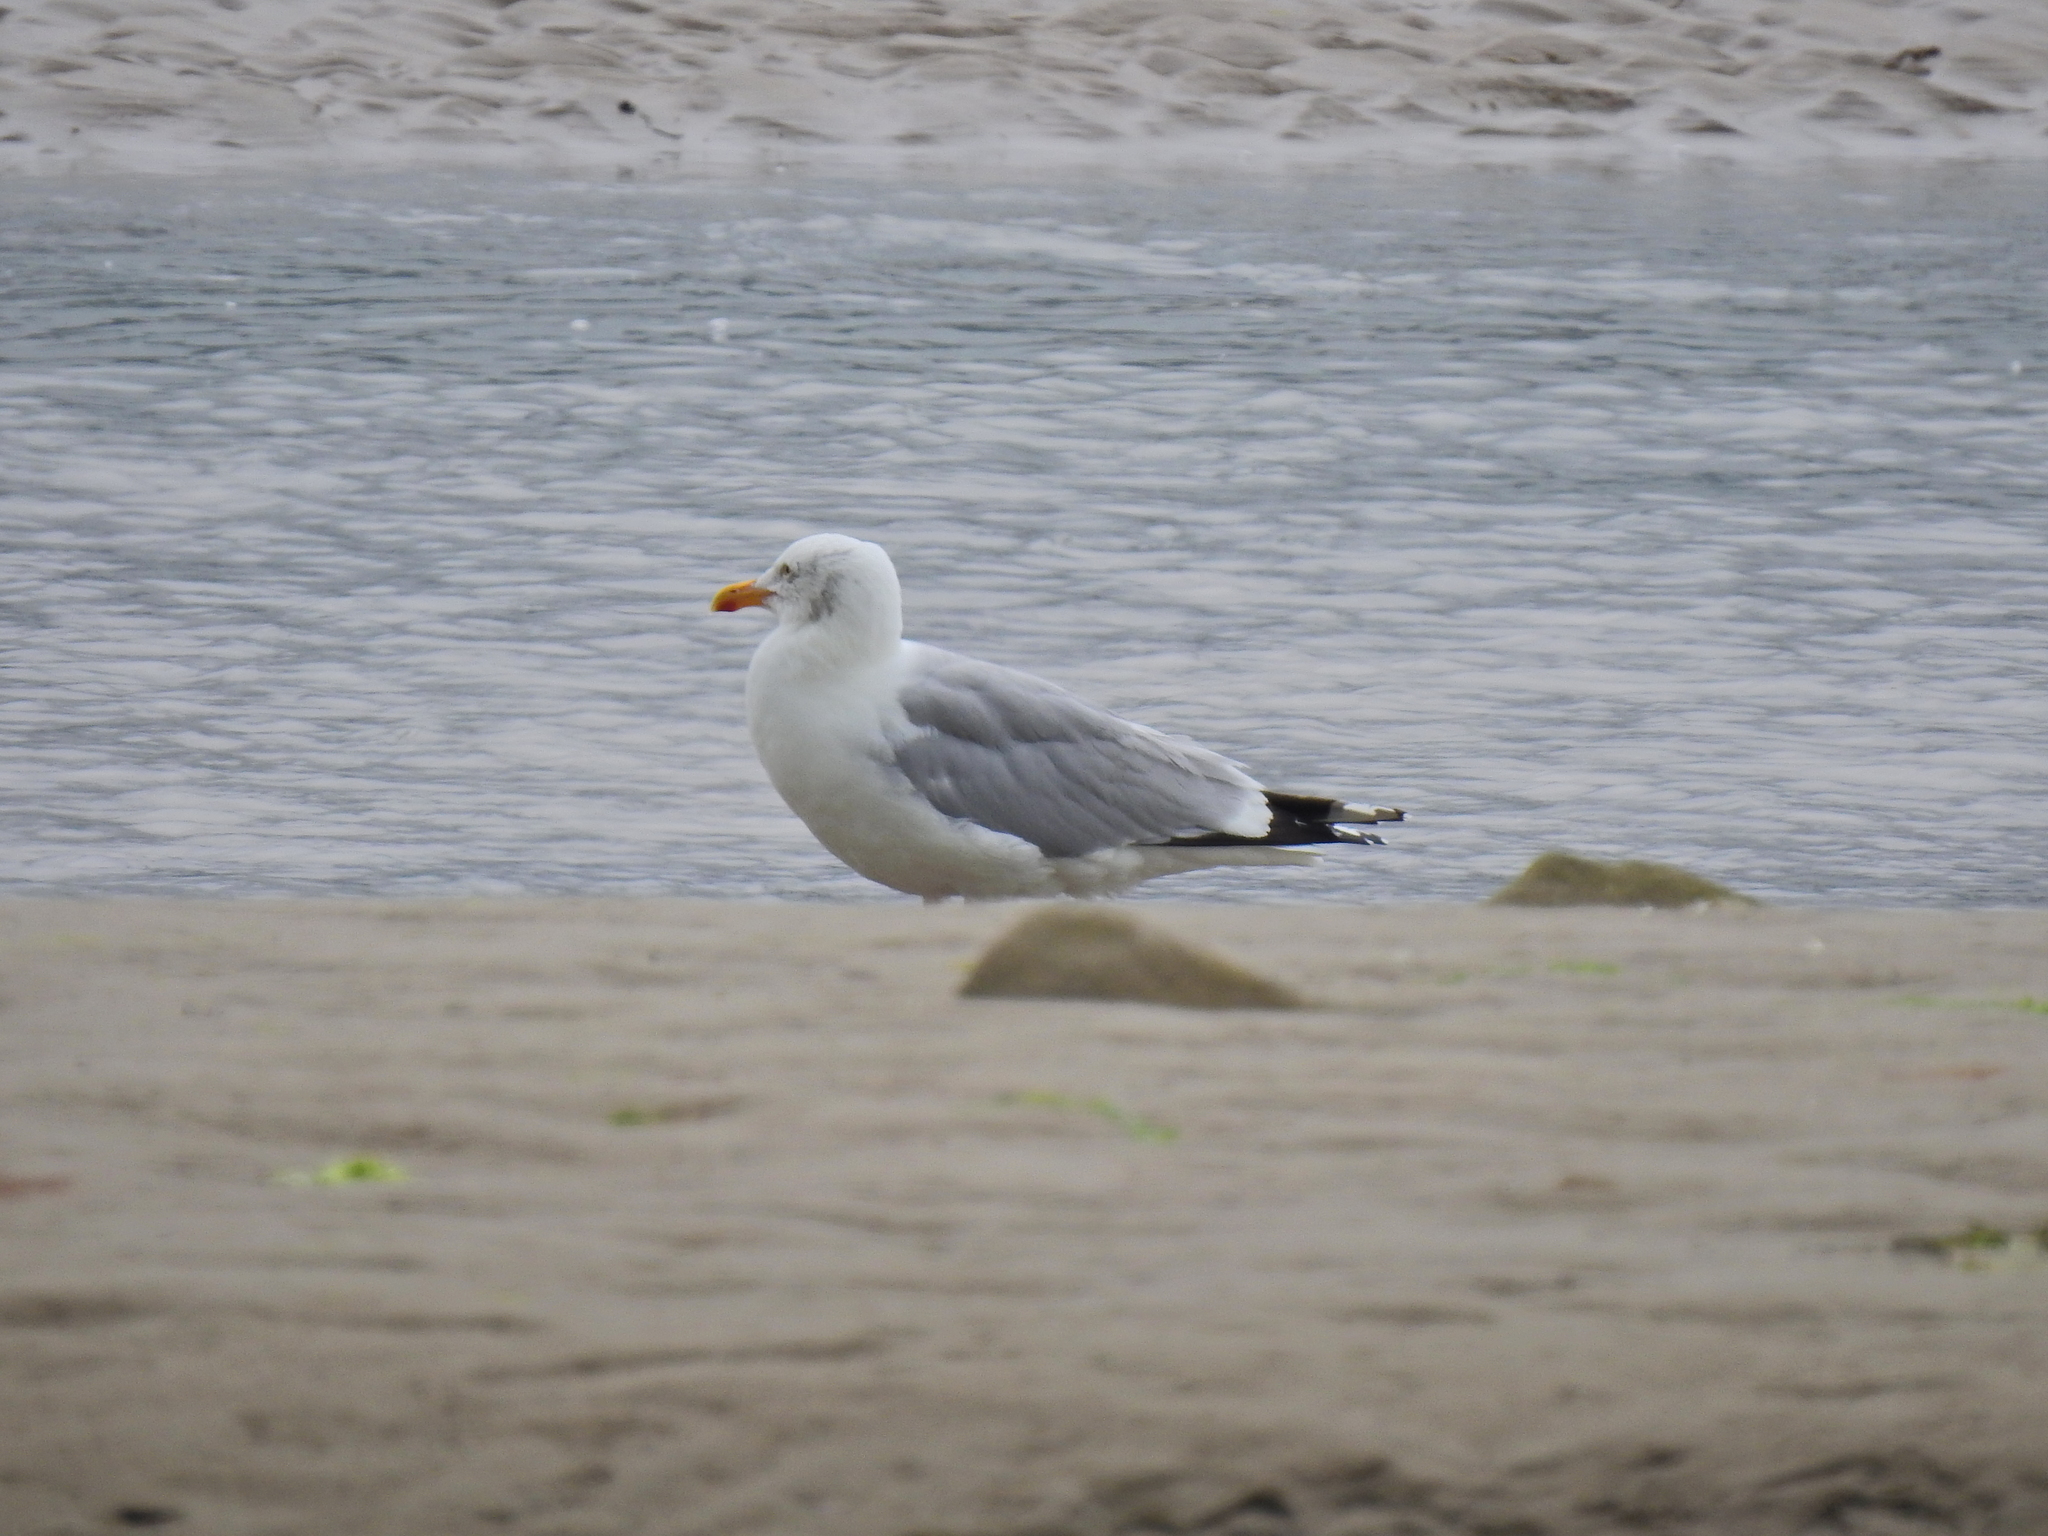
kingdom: Animalia
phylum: Chordata
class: Aves
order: Charadriiformes
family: Laridae
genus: Larus
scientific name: Larus argentatus
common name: Herring gull
